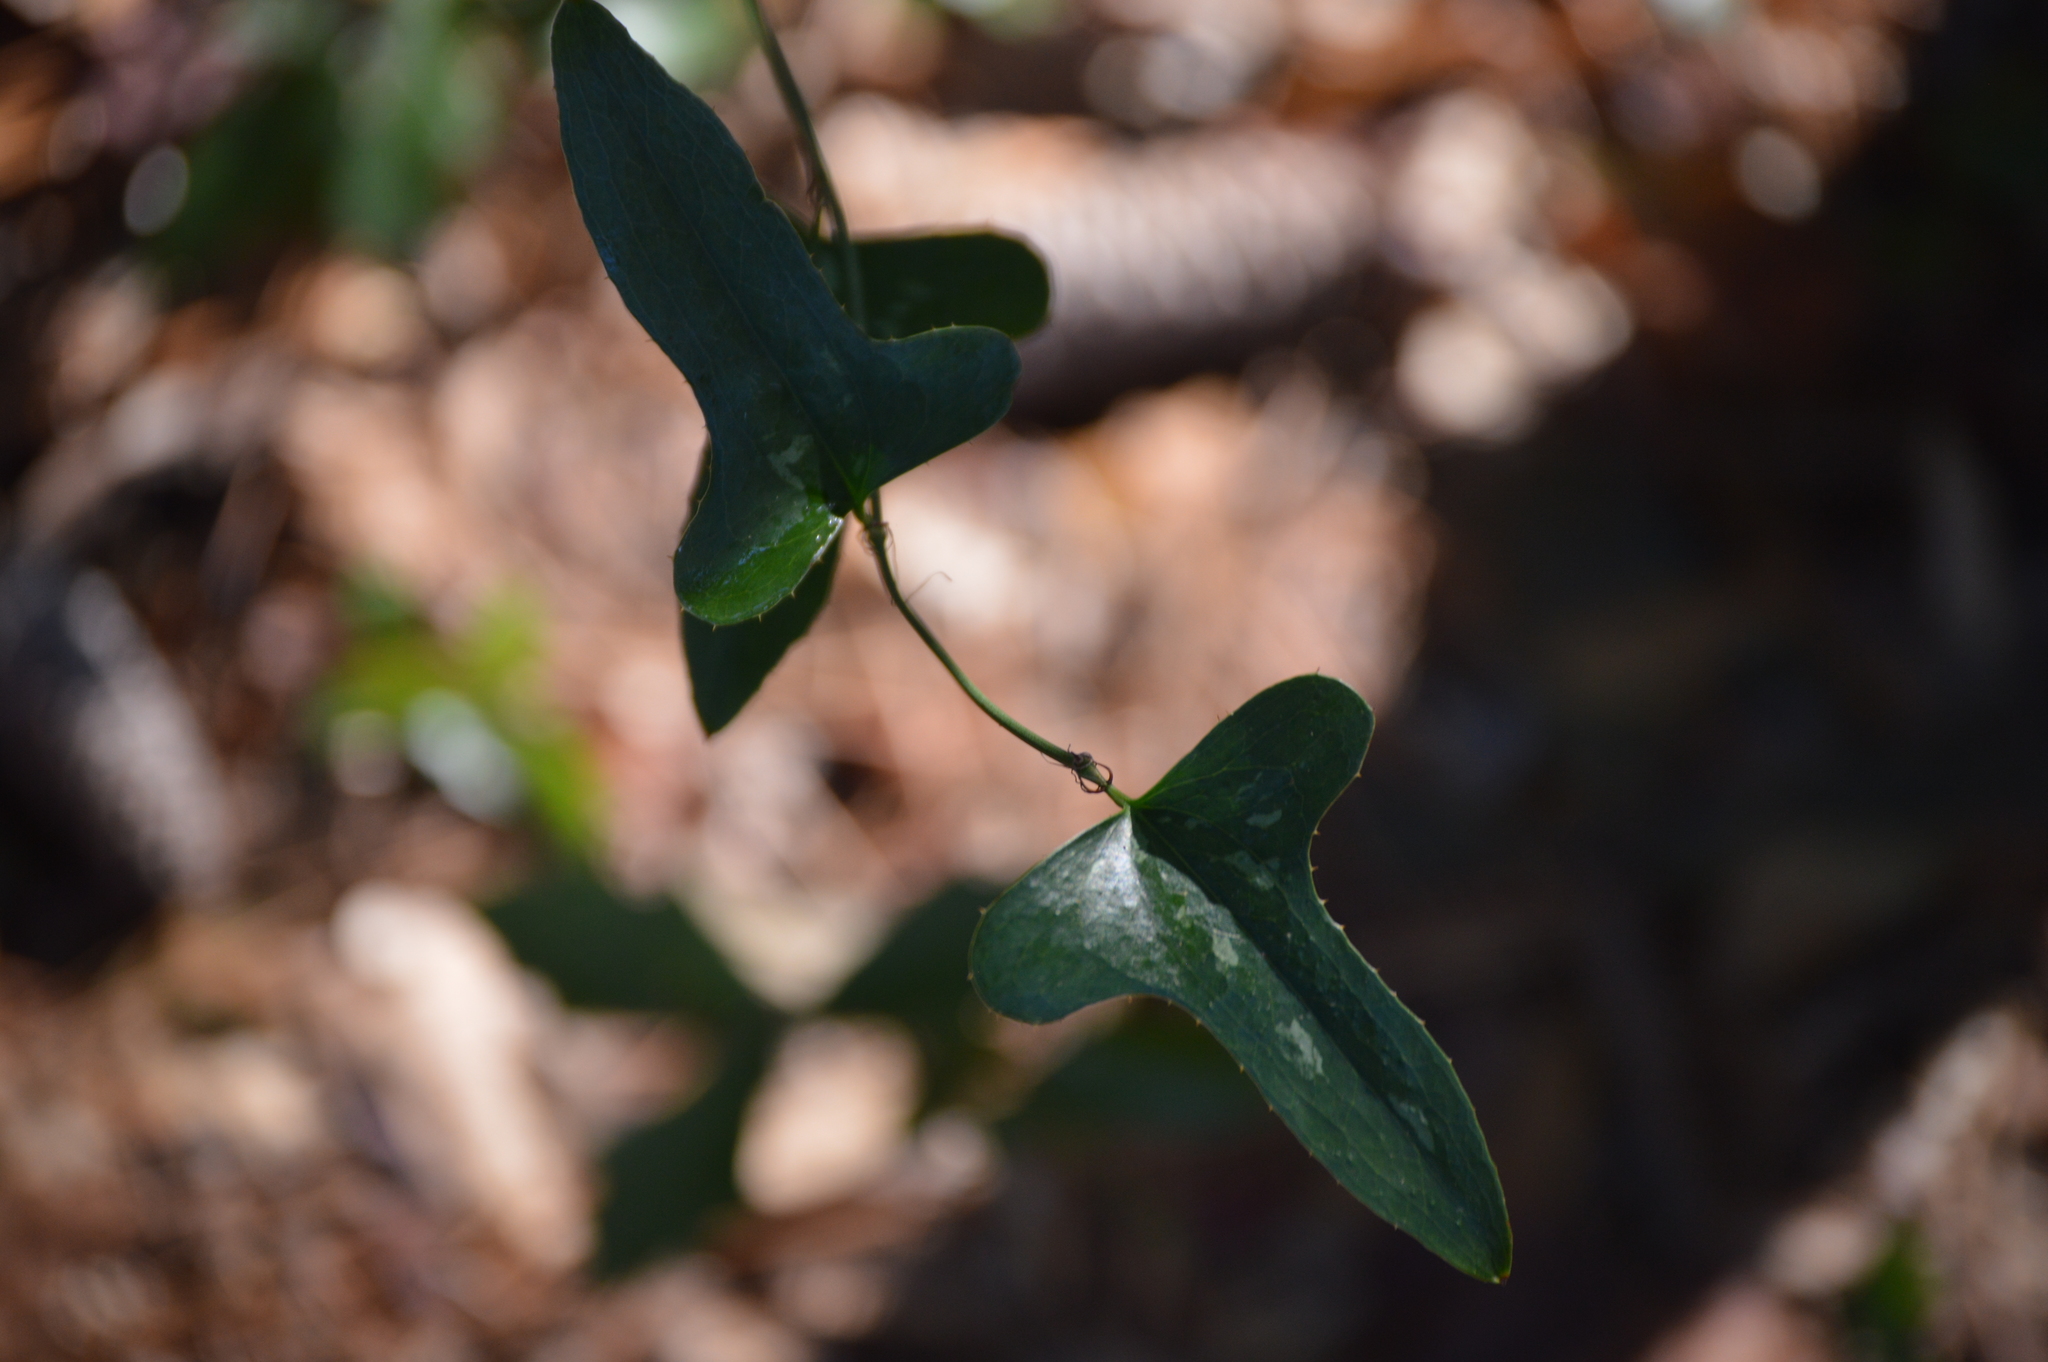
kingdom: Plantae
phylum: Tracheophyta
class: Liliopsida
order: Liliales
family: Smilacaceae
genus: Smilax
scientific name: Smilax bona-nox
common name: Catbrier
